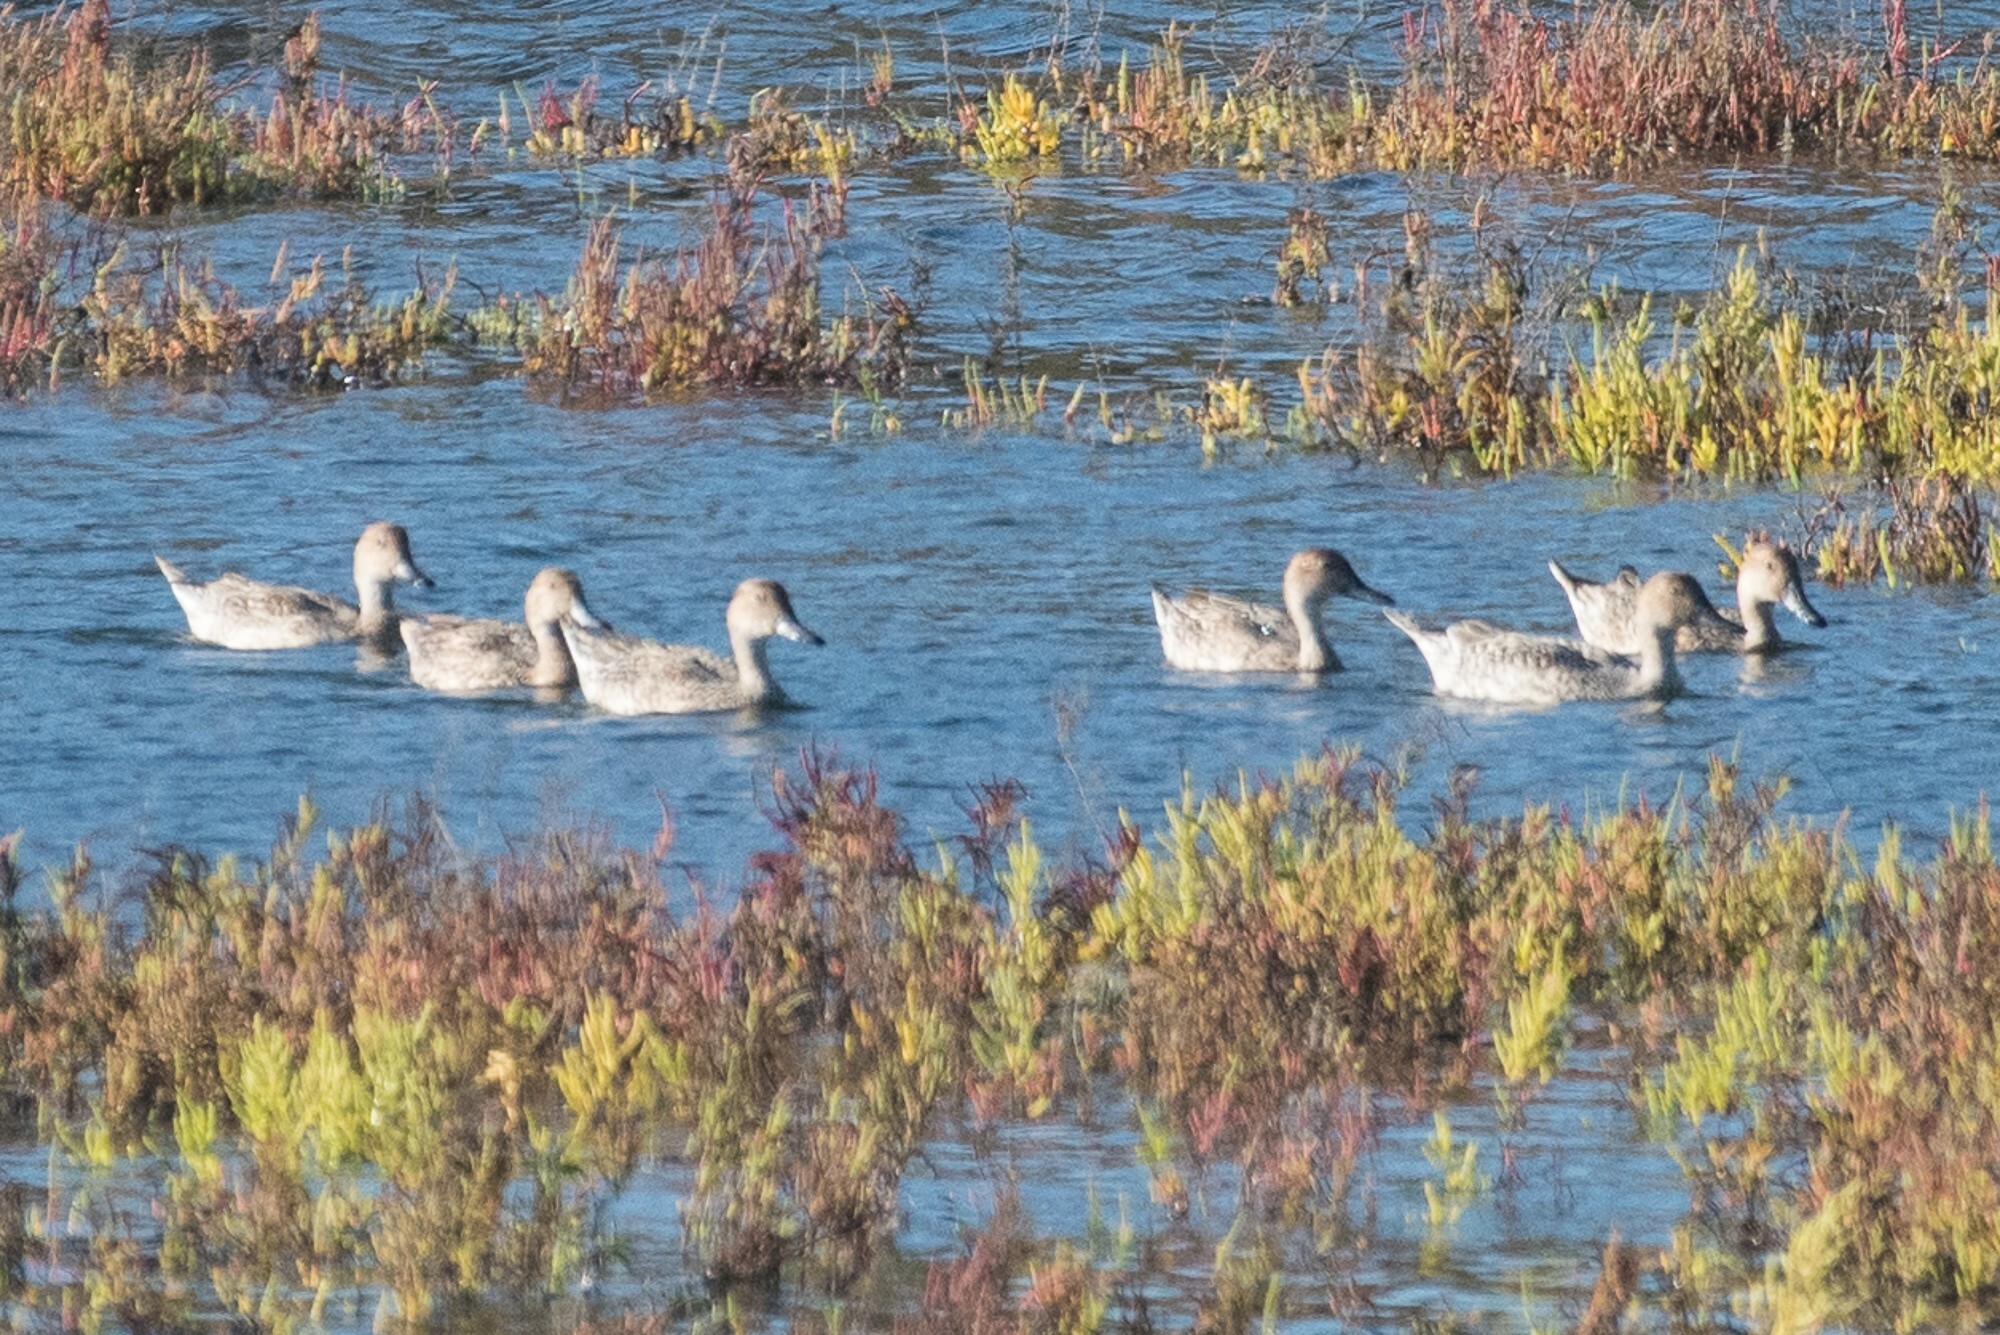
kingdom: Animalia
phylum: Chordata
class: Aves
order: Anseriformes
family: Anatidae
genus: Anas
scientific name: Anas acuta
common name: Northern pintail
